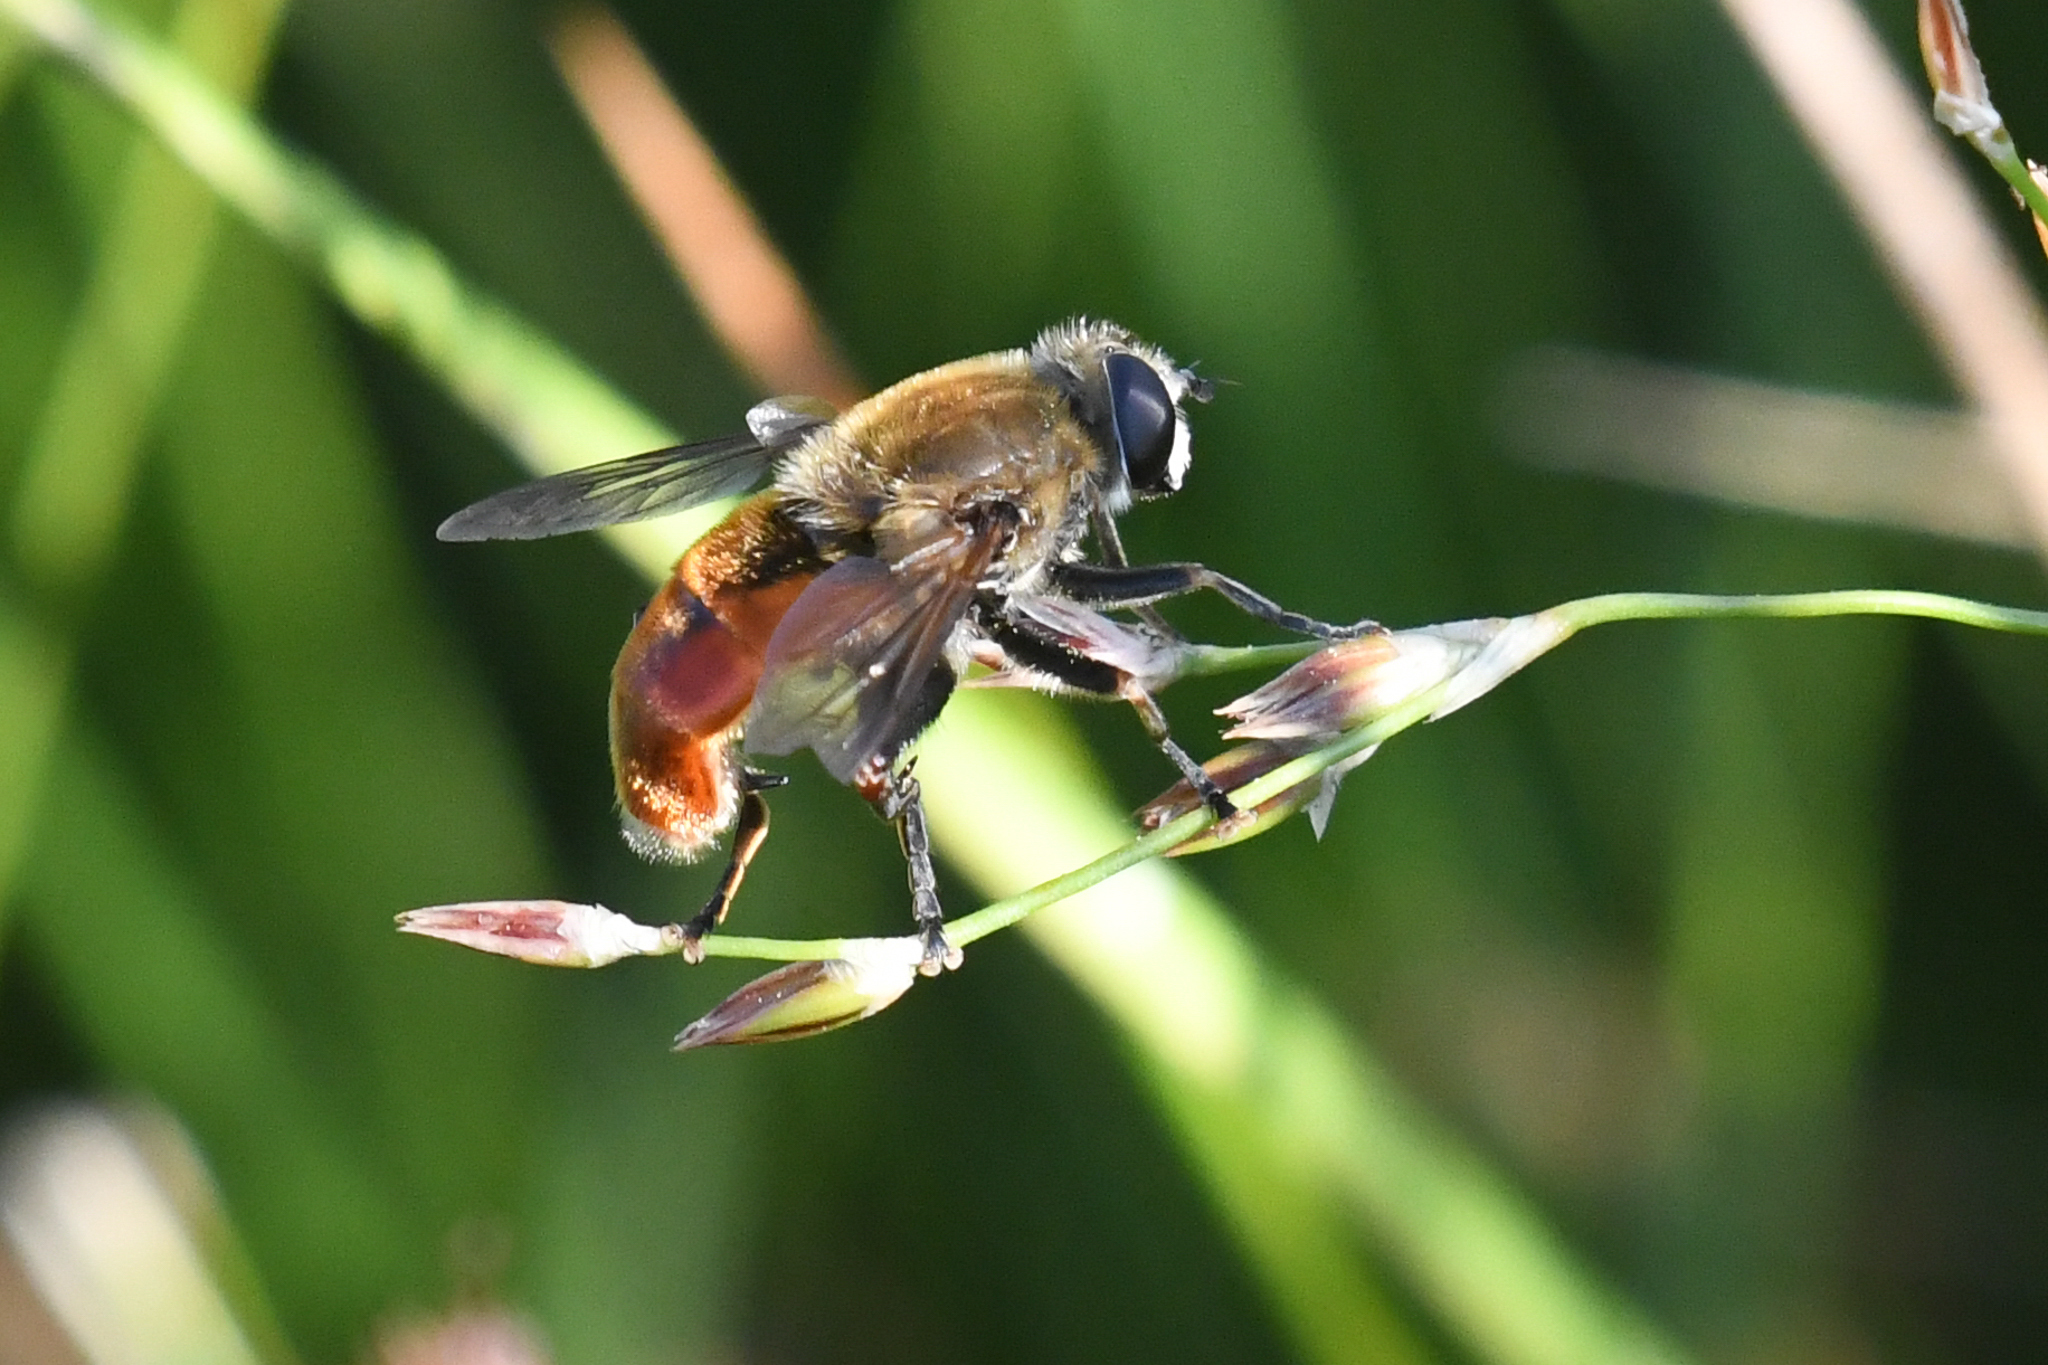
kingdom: Animalia
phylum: Arthropoda
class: Insecta
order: Diptera
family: Syrphidae
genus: Polydontomyia
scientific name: Polydontomyia curvipes
